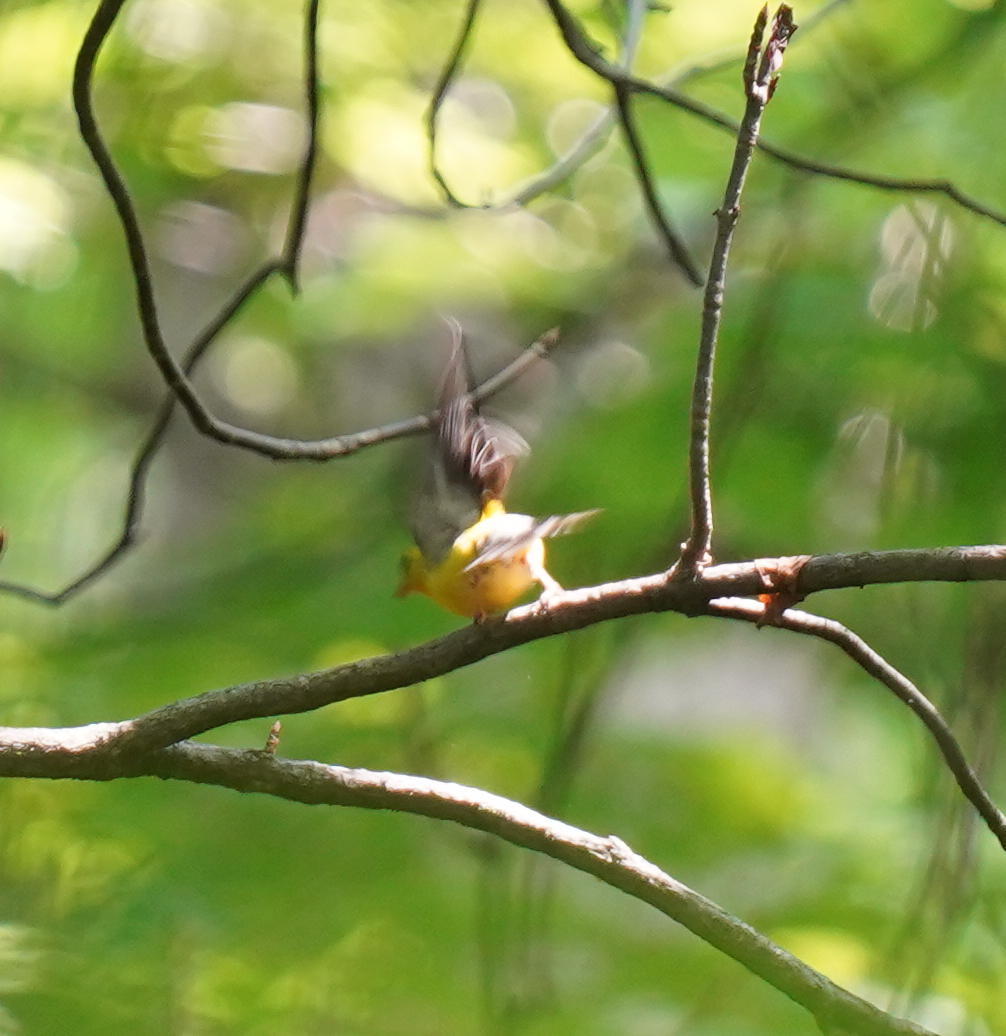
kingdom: Animalia
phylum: Chordata
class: Aves
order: Passeriformes
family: Fringillidae
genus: Spinus
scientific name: Spinus tristis
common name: American goldfinch
